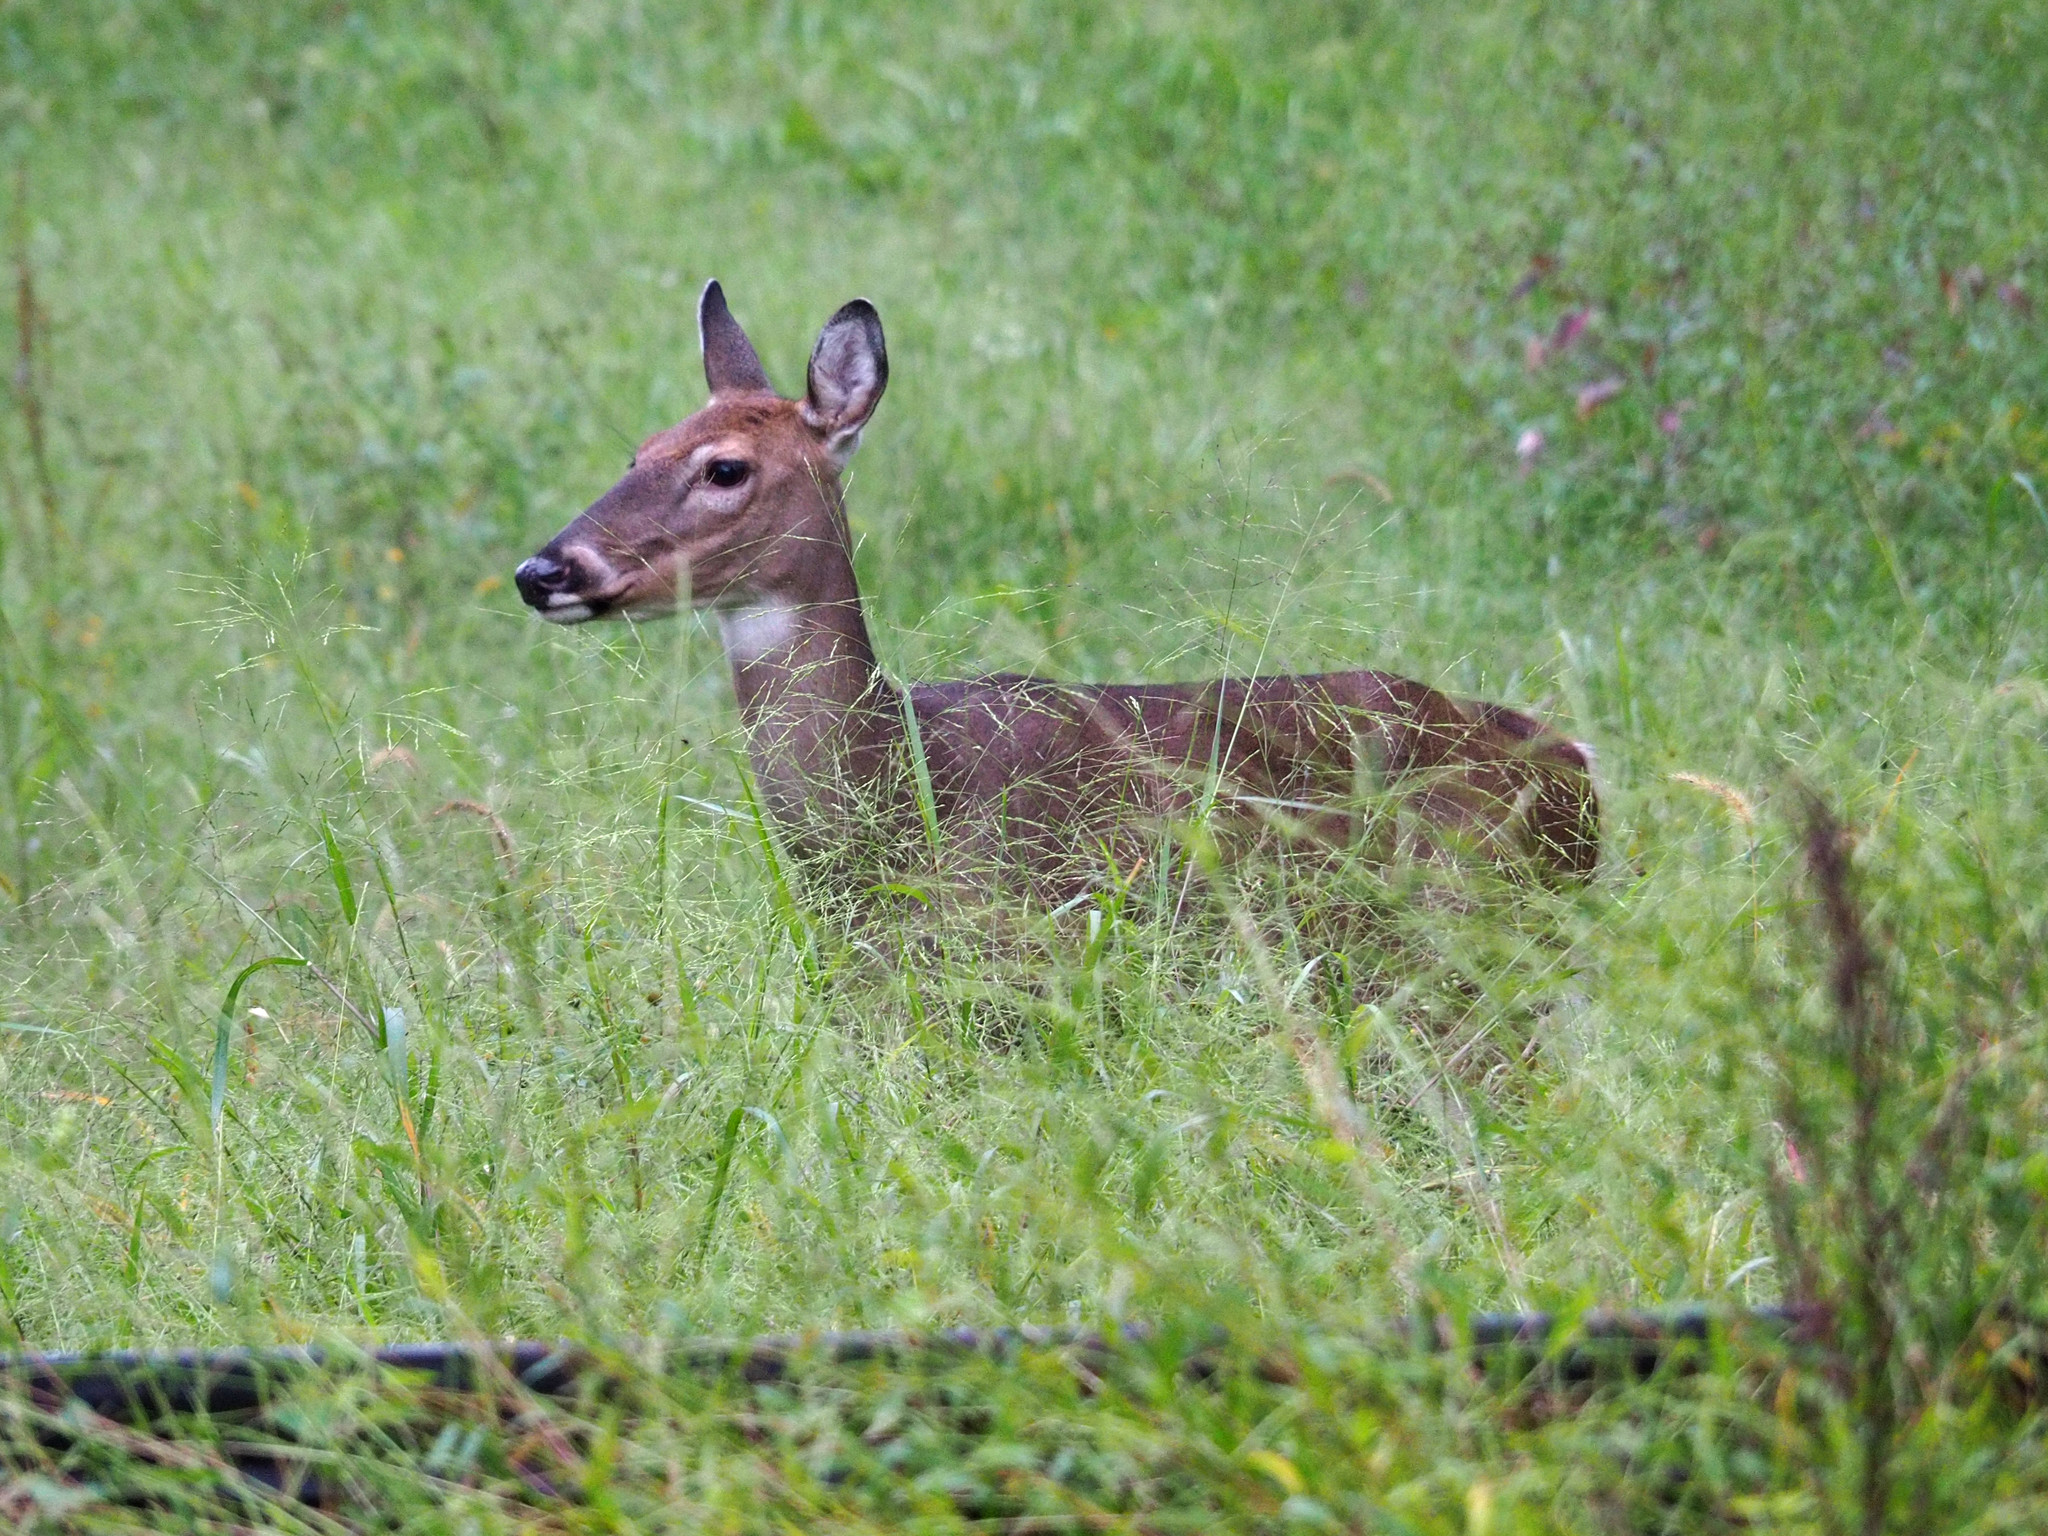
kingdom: Animalia
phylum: Chordata
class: Mammalia
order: Artiodactyla
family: Cervidae
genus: Odocoileus
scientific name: Odocoileus virginianus
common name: White-tailed deer
